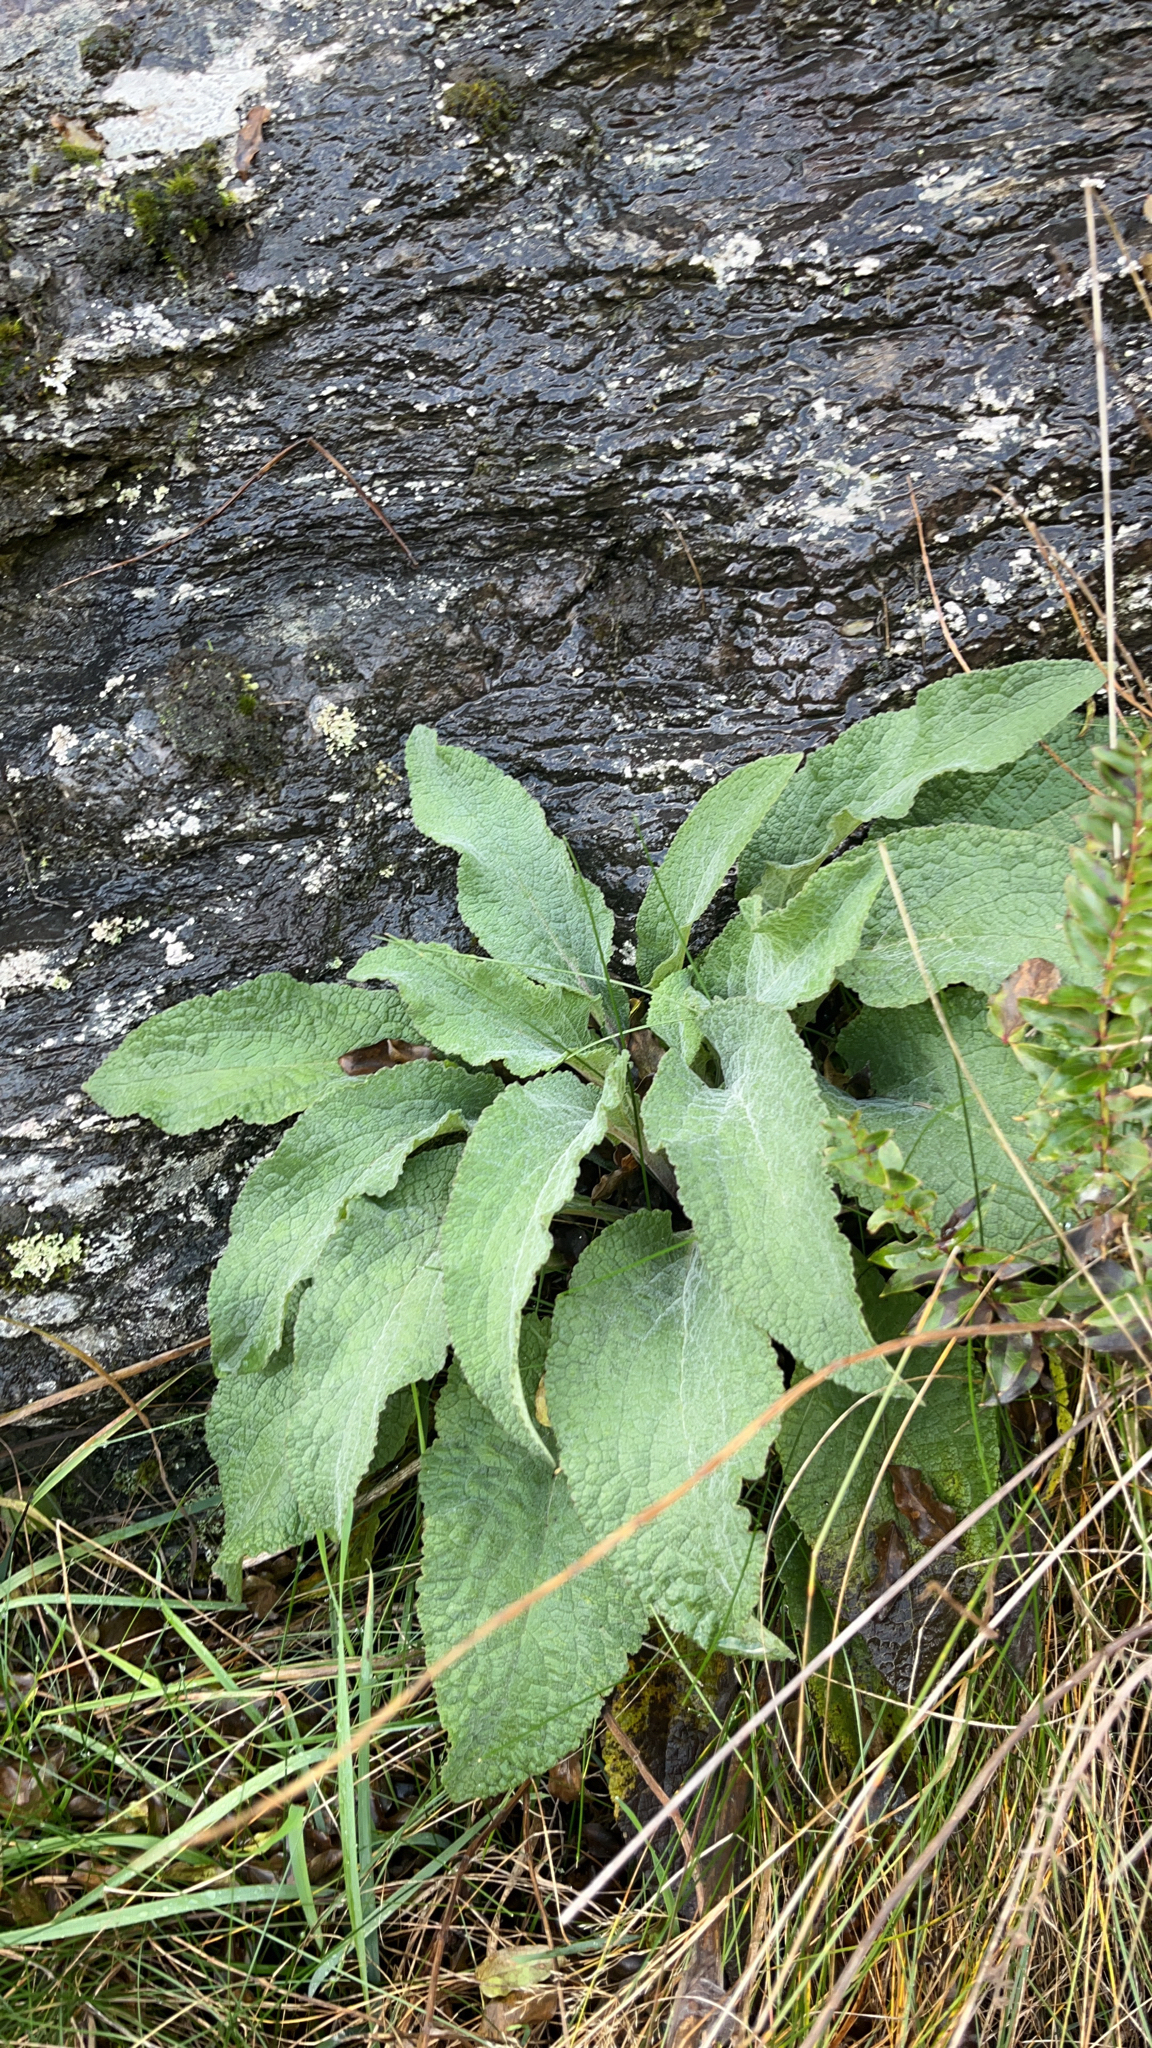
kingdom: Plantae
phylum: Tracheophyta
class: Magnoliopsida
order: Lamiales
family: Plantaginaceae
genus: Digitalis
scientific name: Digitalis purpurea
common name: Foxglove
